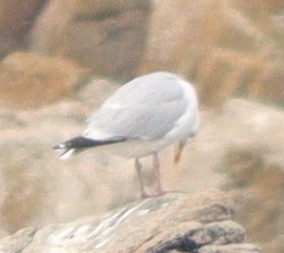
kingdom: Animalia
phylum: Chordata
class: Aves
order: Charadriiformes
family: Laridae
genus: Larus
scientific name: Larus argentatus
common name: Herring gull
